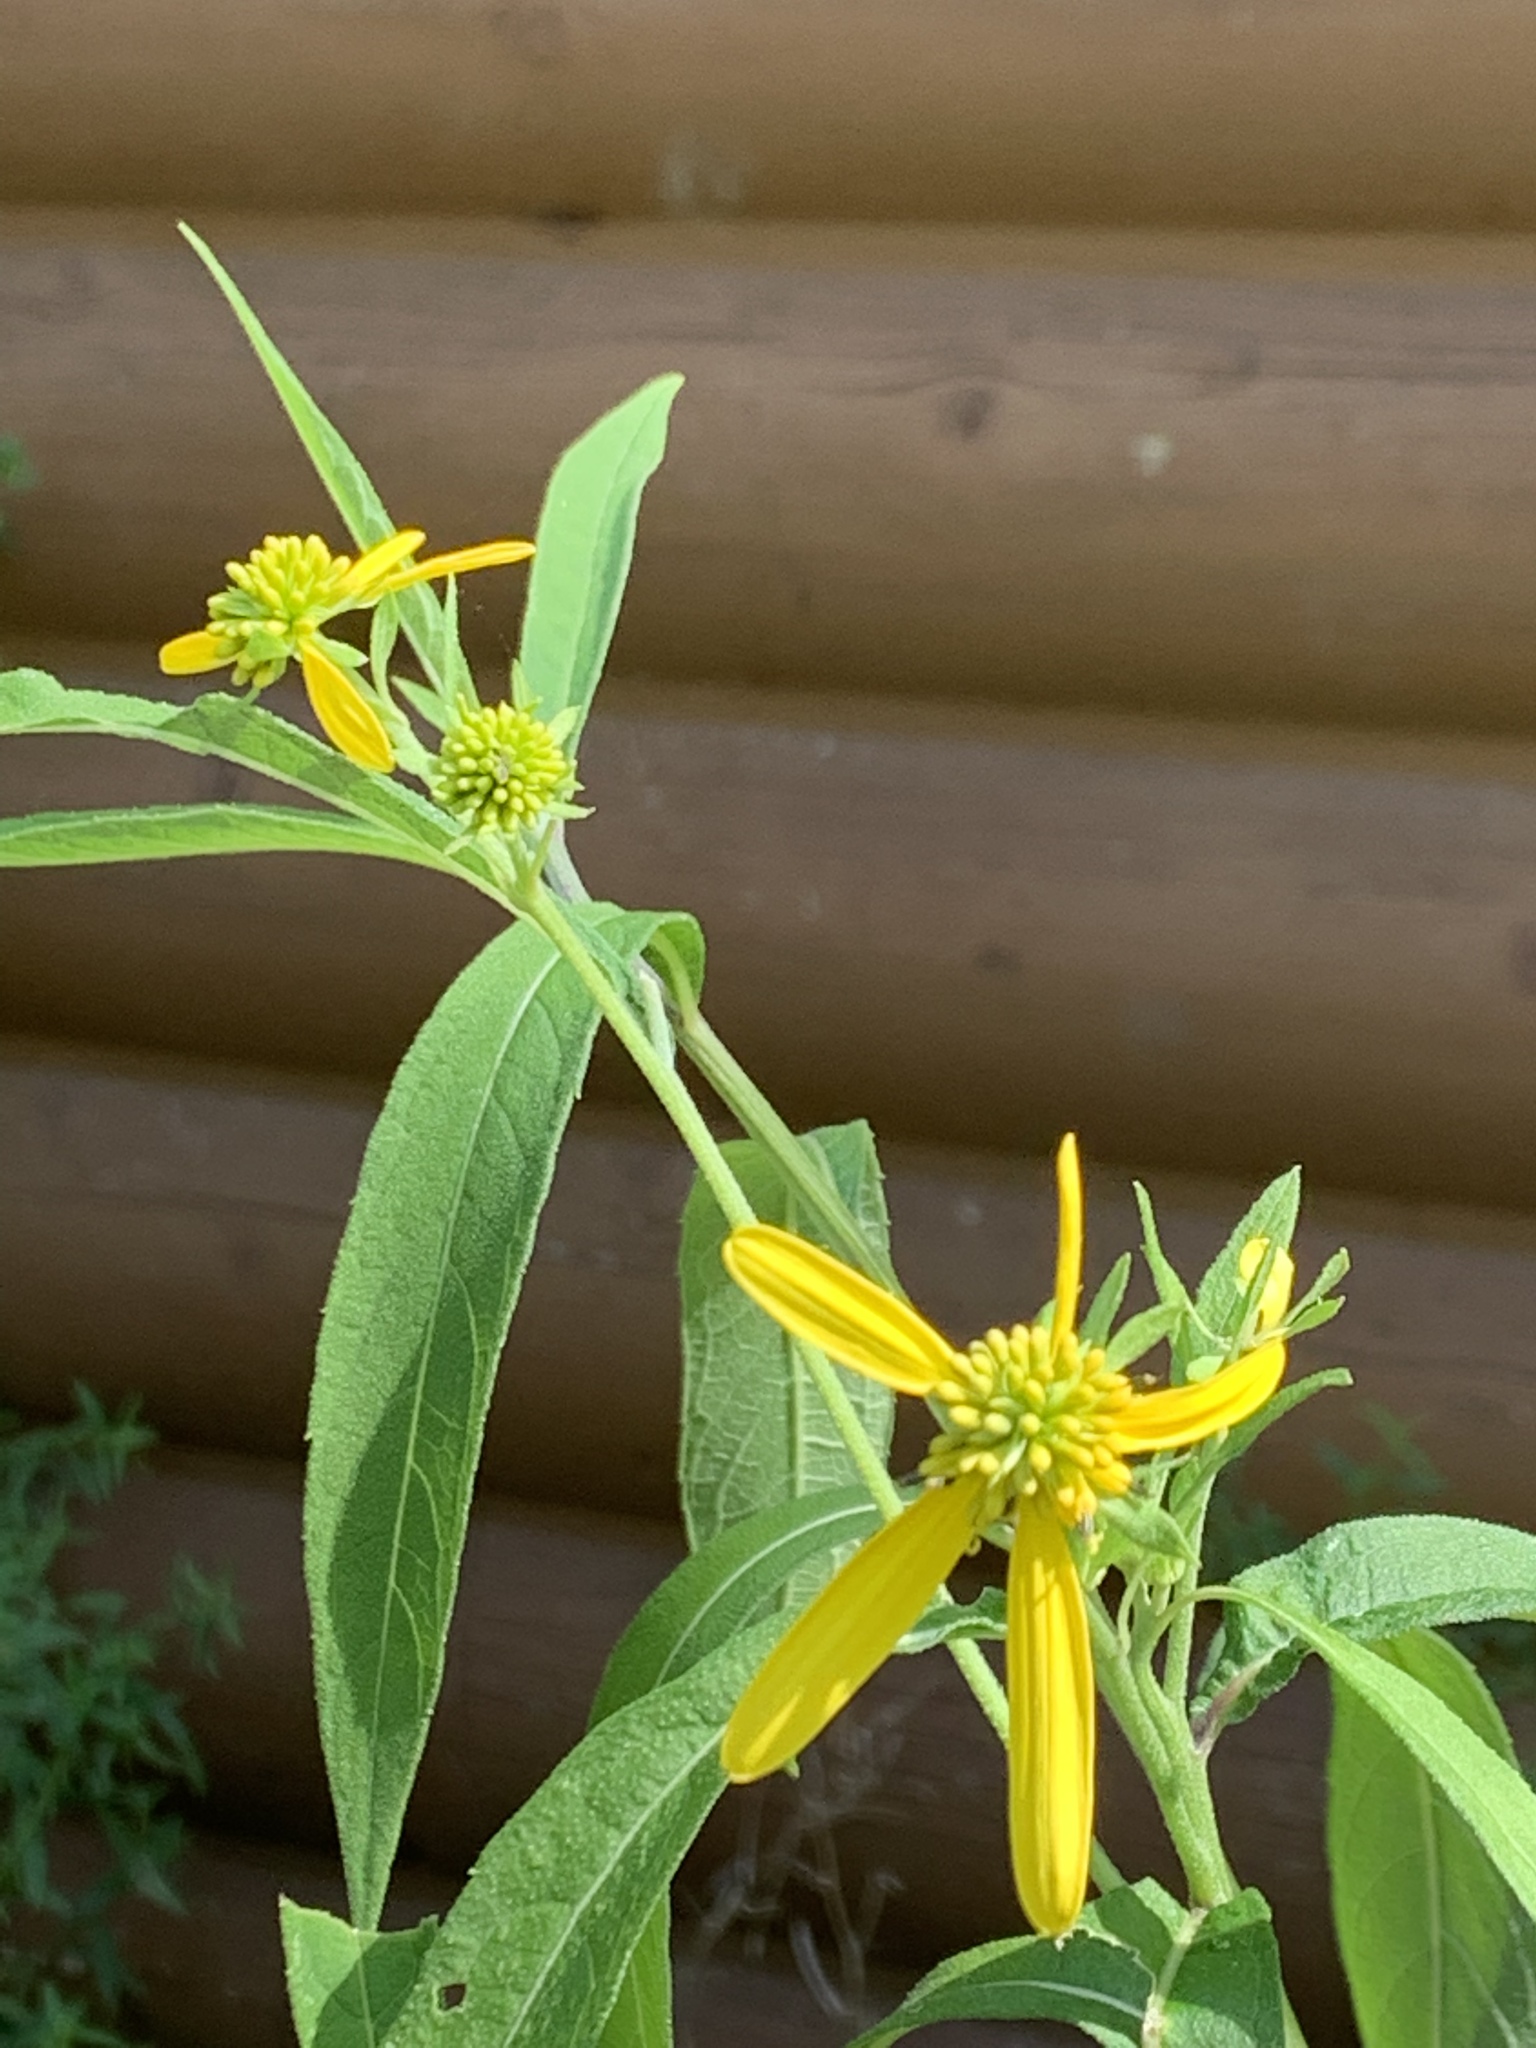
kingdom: Plantae
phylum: Tracheophyta
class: Magnoliopsida
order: Asterales
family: Asteraceae
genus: Verbesina
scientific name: Verbesina alternifolia
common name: Wingstem
